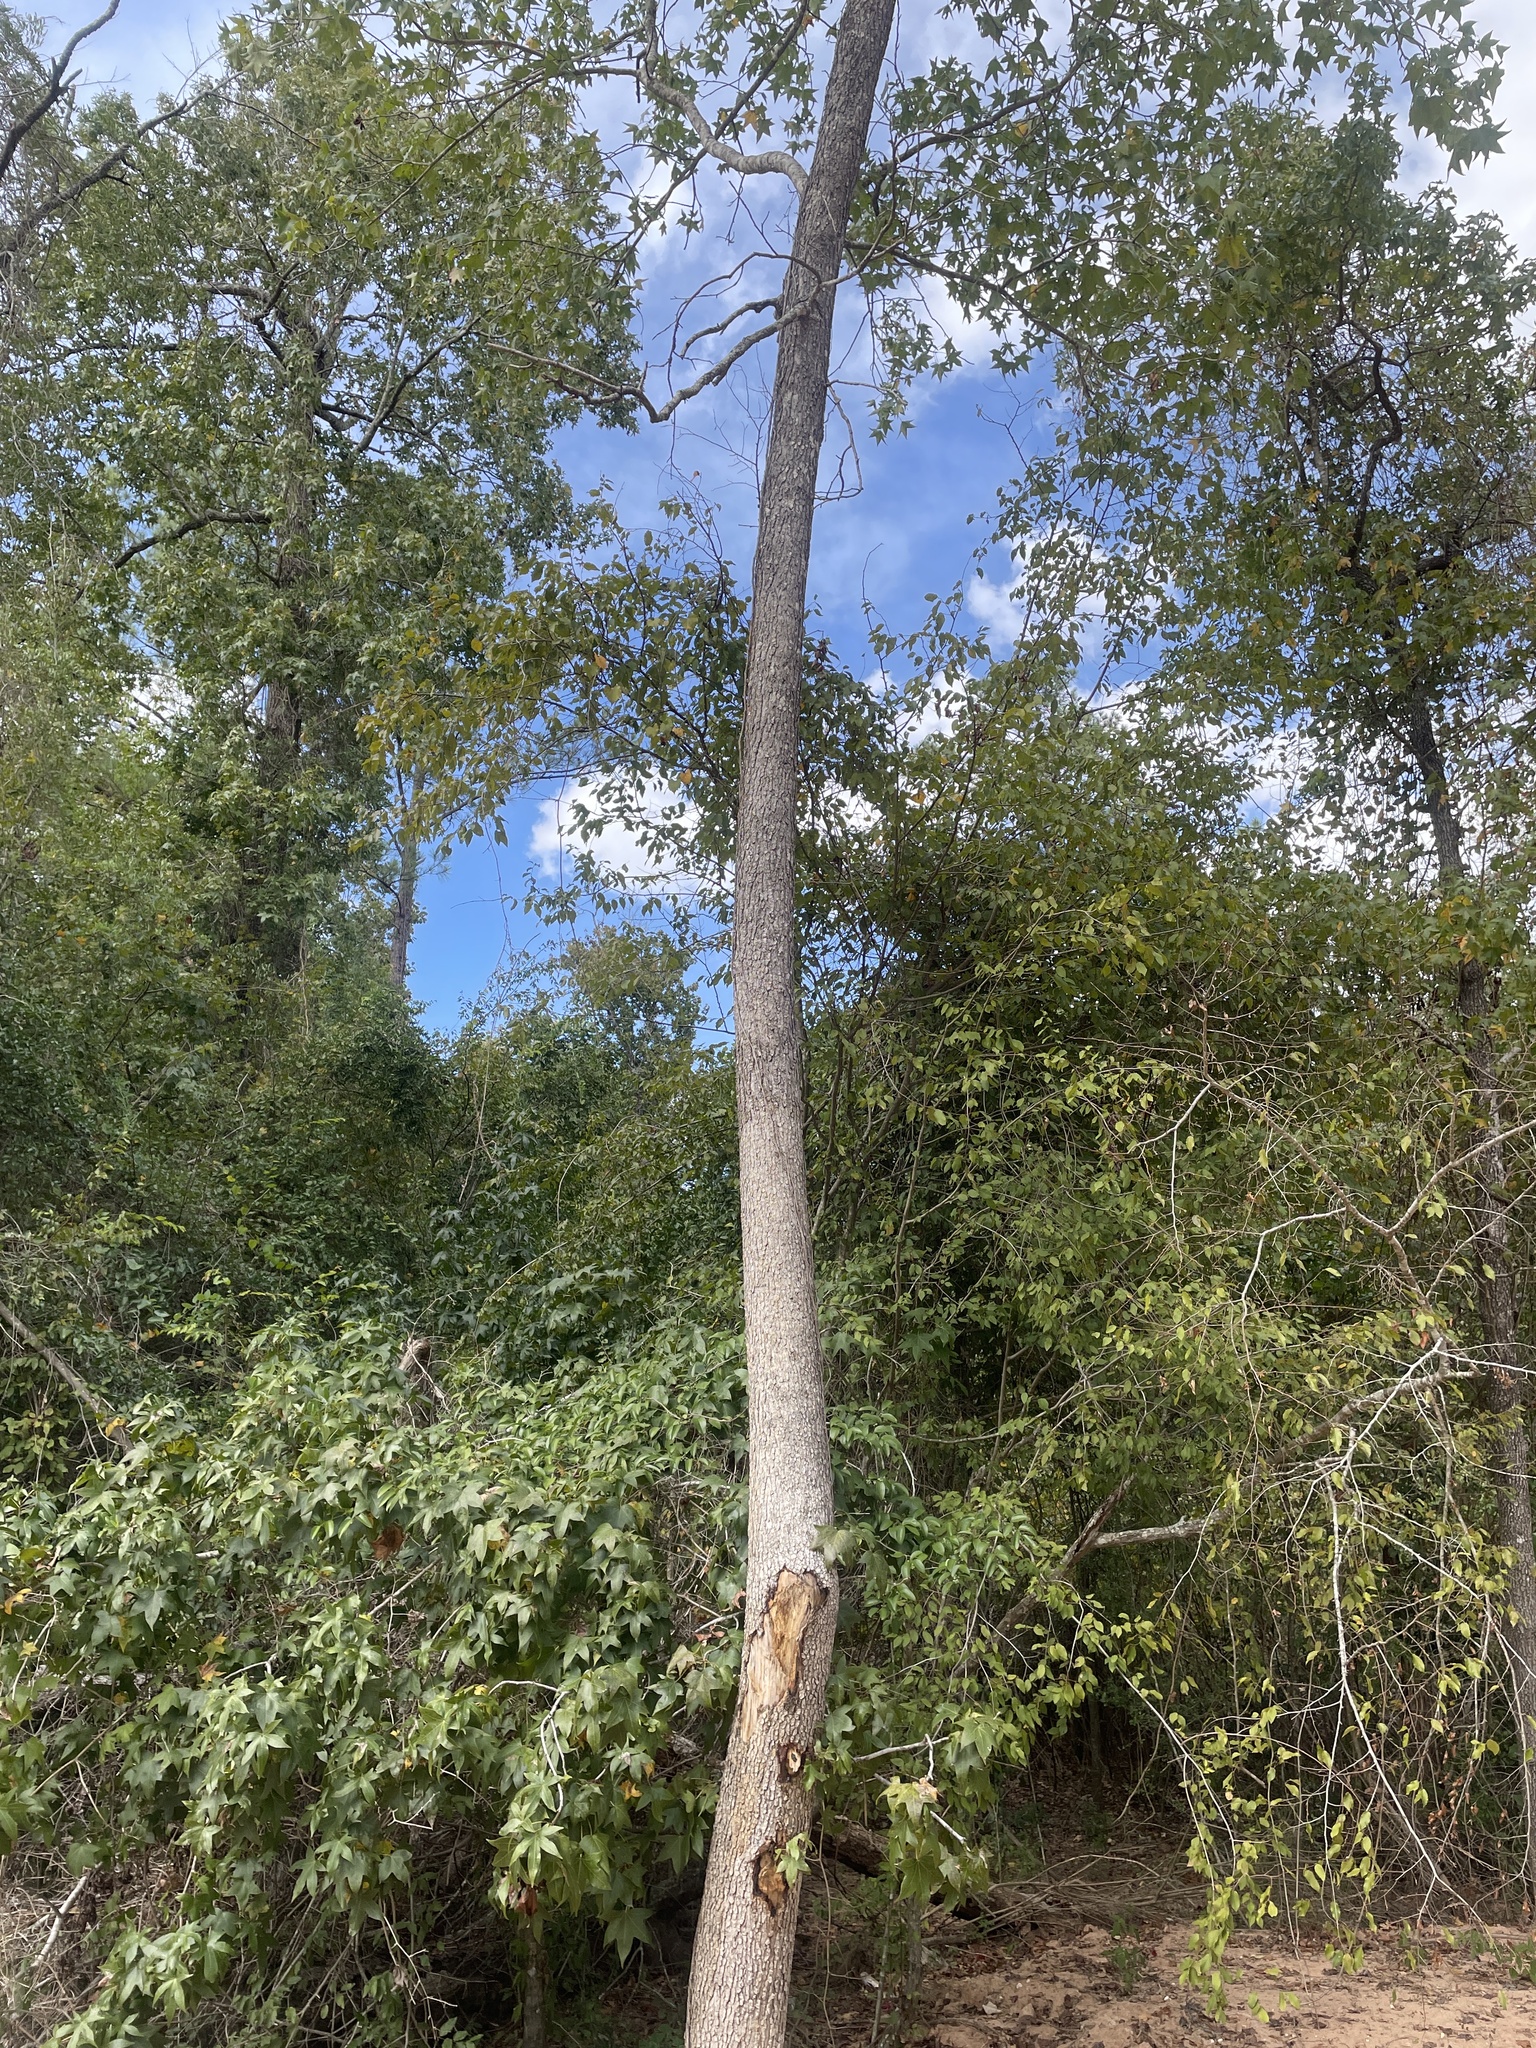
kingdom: Plantae
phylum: Tracheophyta
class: Magnoliopsida
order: Saxifragales
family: Altingiaceae
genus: Liquidambar
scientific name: Liquidambar styraciflua
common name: Sweet gum
